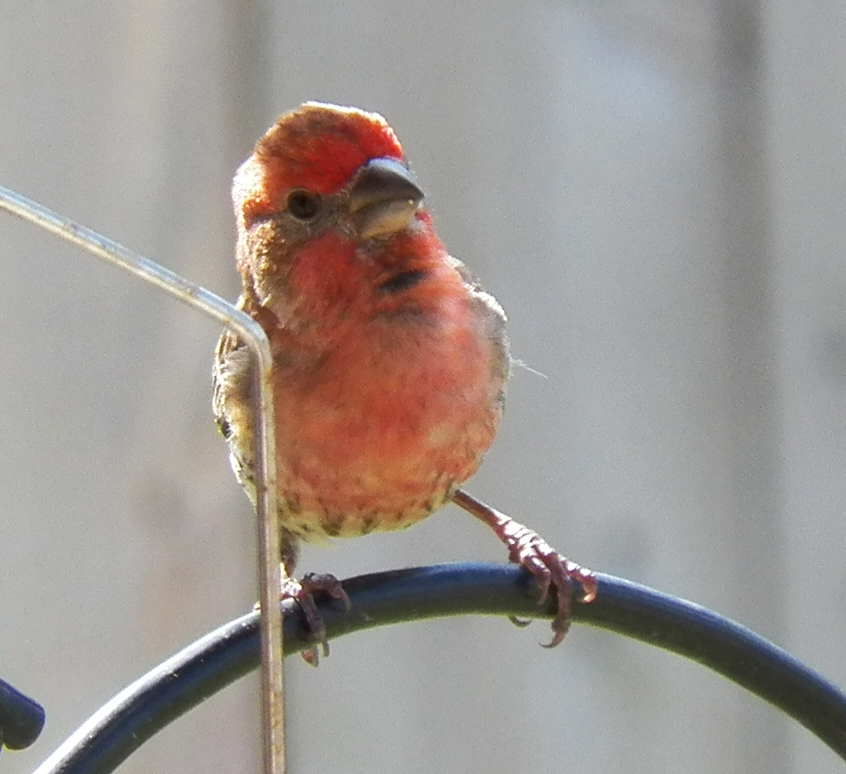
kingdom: Animalia
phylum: Chordata
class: Aves
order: Passeriformes
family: Fringillidae
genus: Haemorhous
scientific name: Haemorhous mexicanus
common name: House finch
